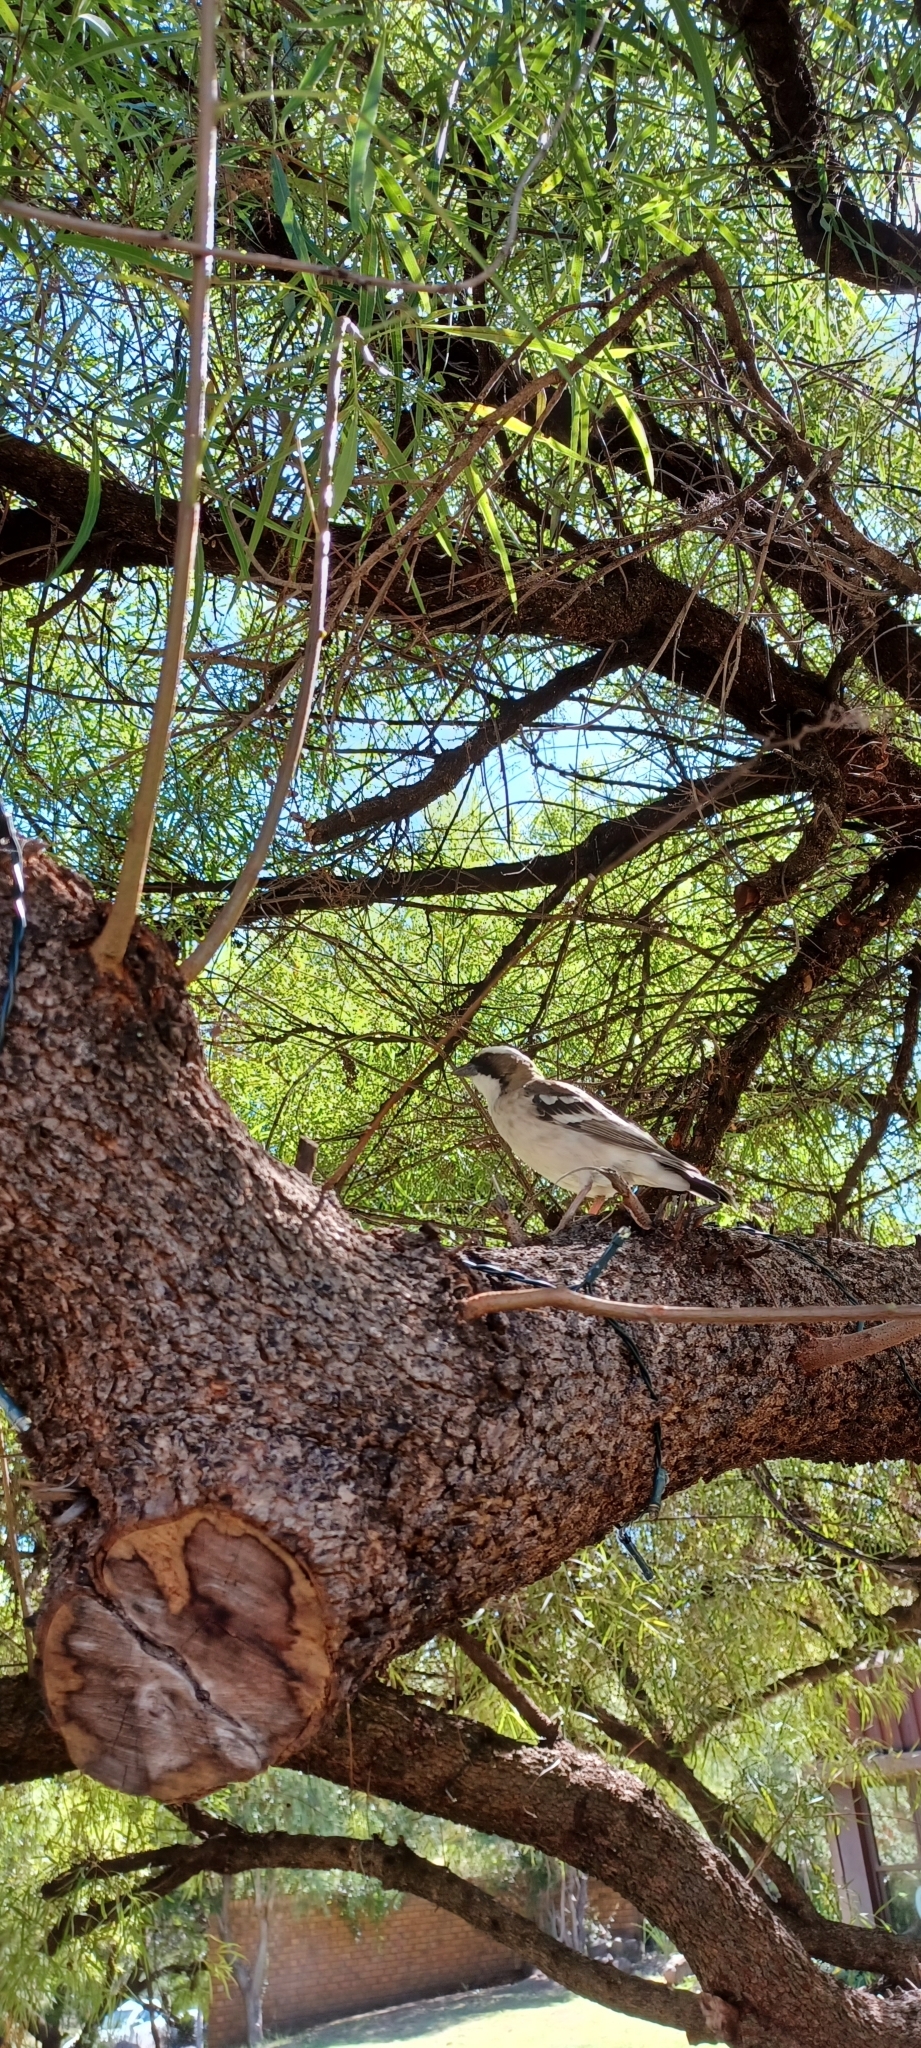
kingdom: Animalia
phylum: Chordata
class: Aves
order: Passeriformes
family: Passeridae
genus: Plocepasser
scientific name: Plocepasser mahali
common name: White-browed sparrow-weaver
